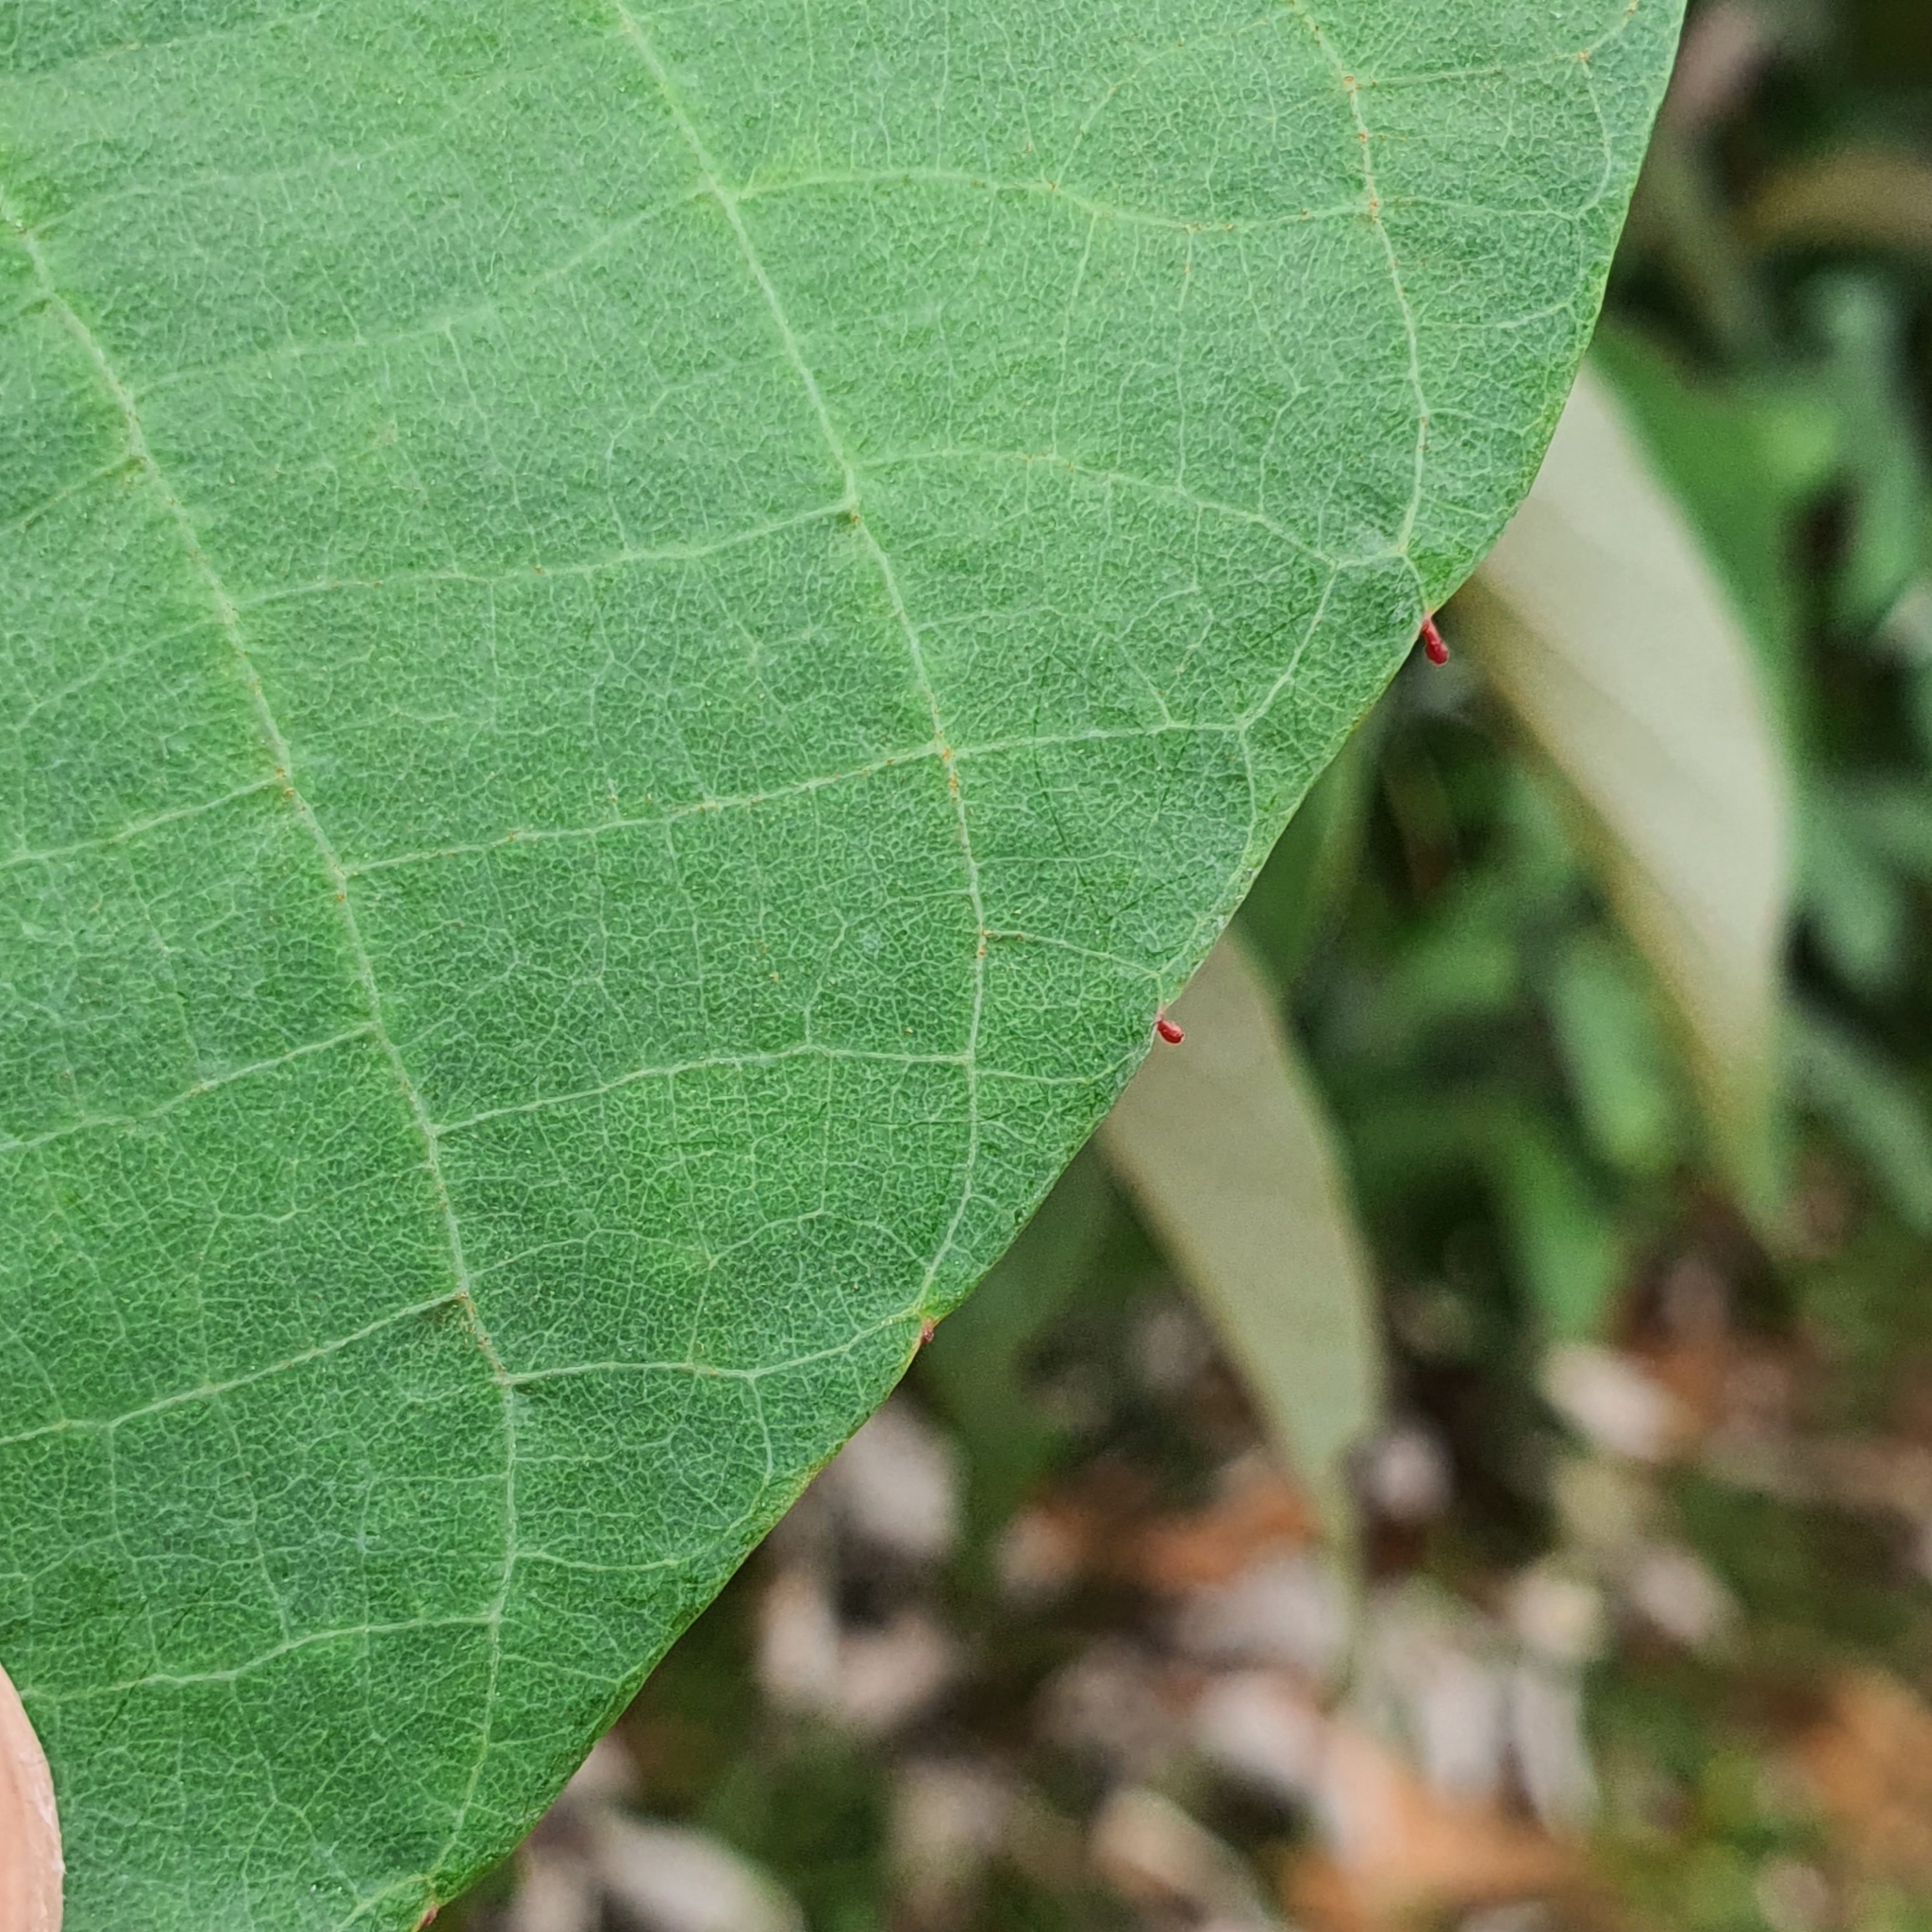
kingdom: Plantae
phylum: Tracheophyta
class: Magnoliopsida
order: Malpighiales
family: Euphorbiaceae
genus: Macaranga
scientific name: Macaranga hypoleuca
